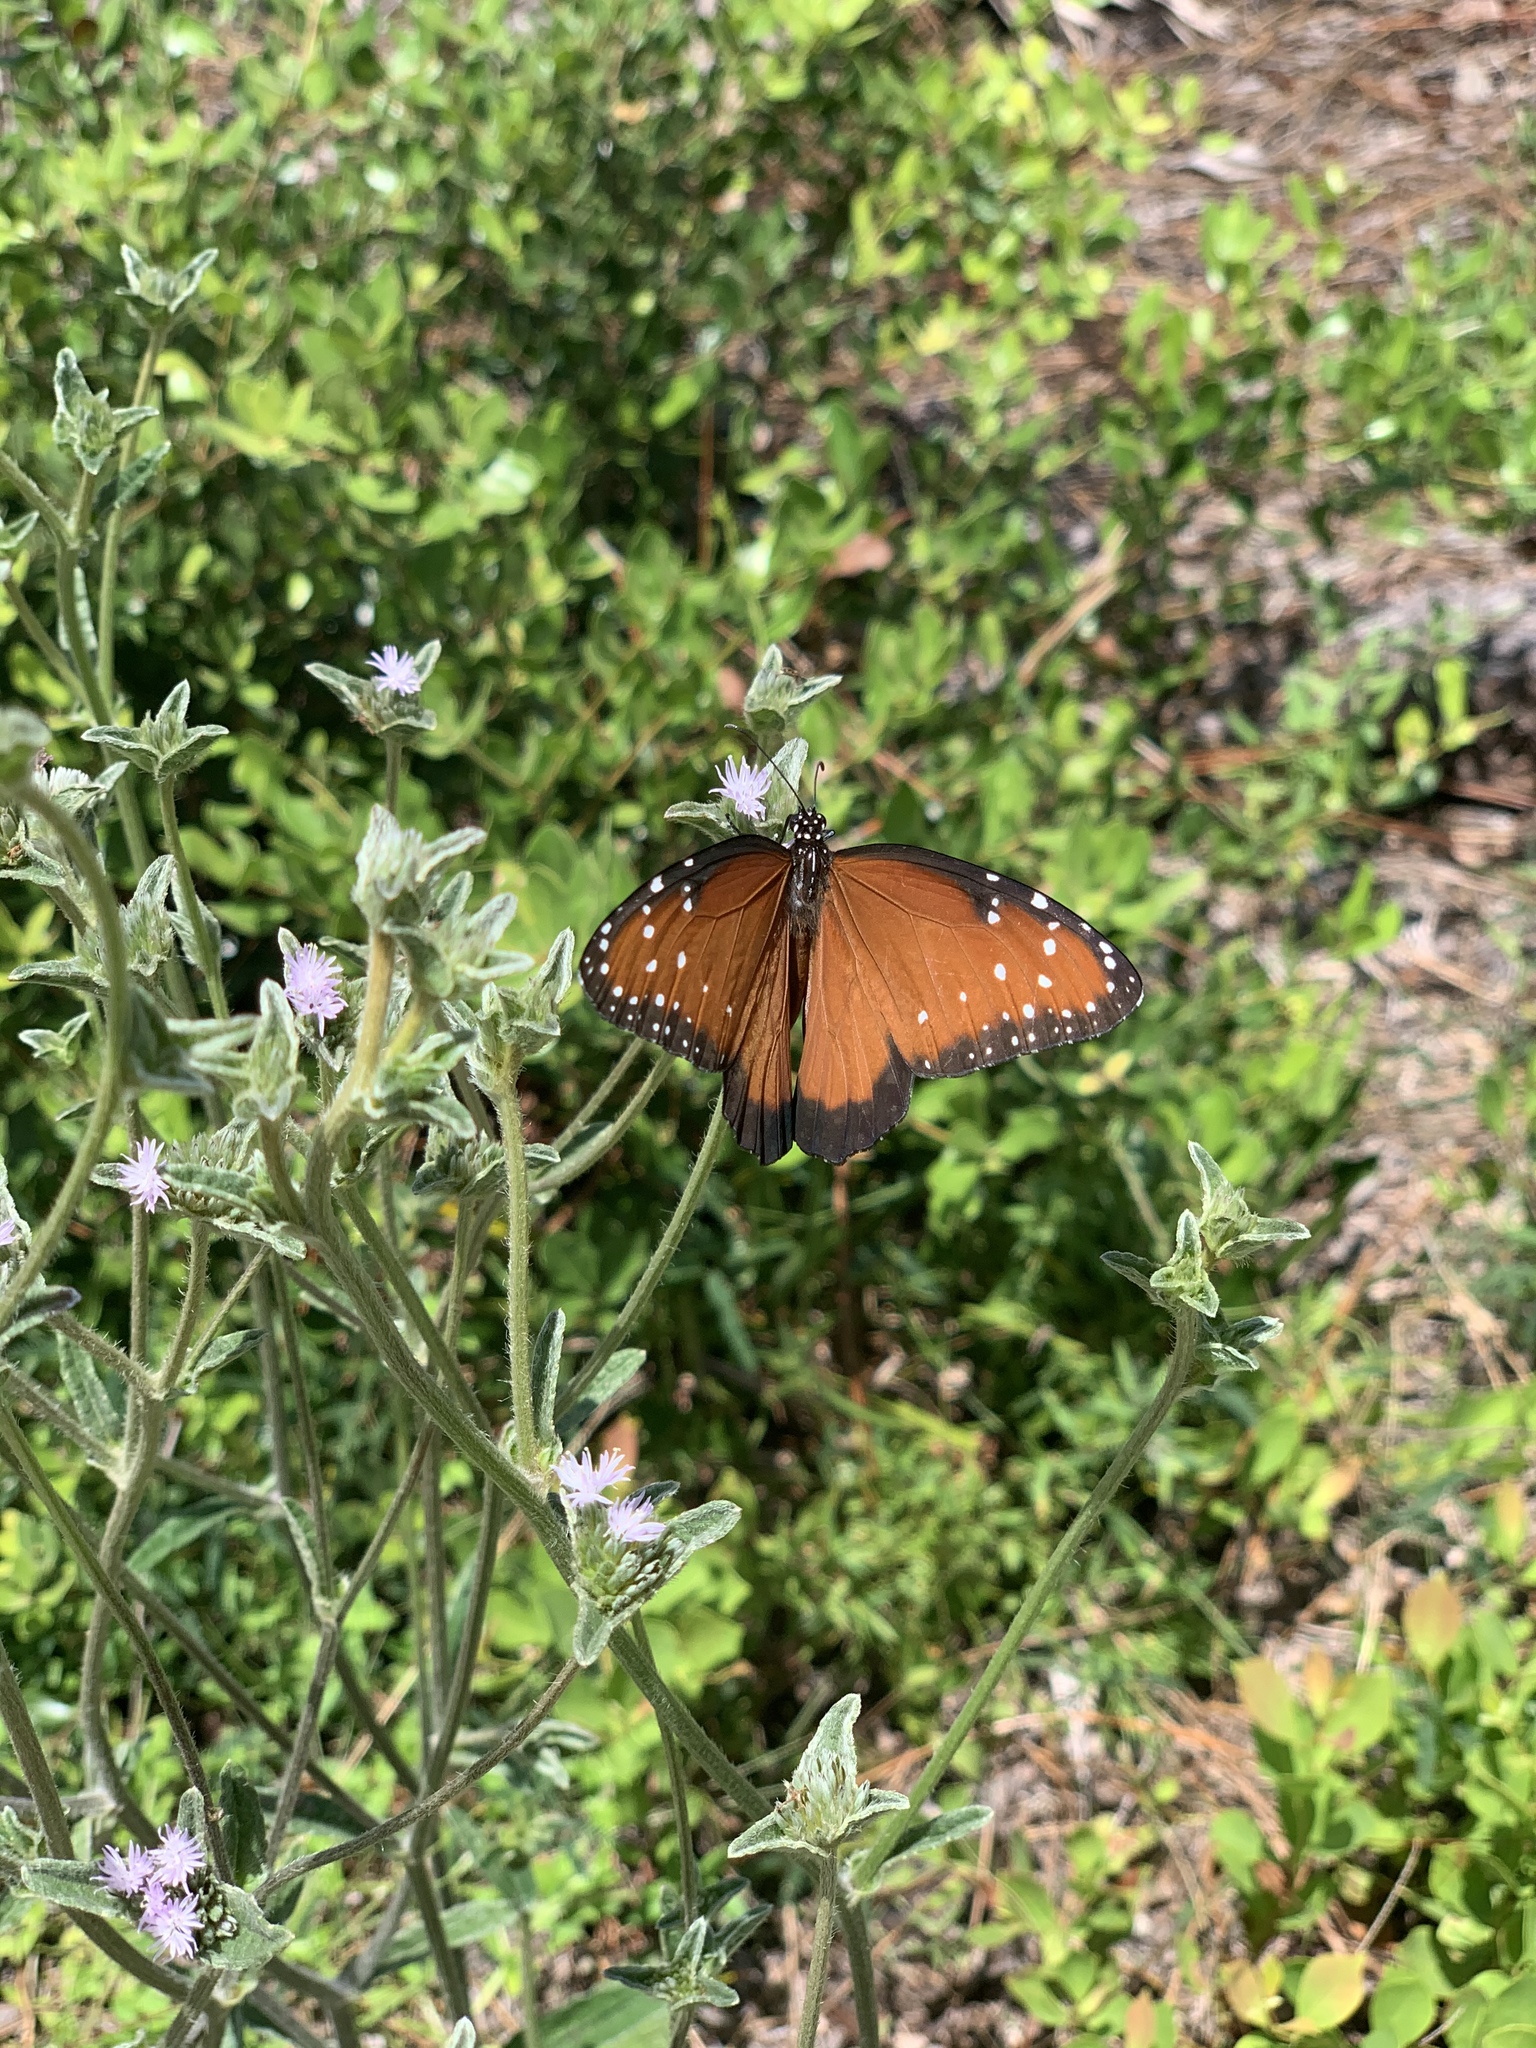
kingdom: Animalia
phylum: Arthropoda
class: Insecta
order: Lepidoptera
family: Nymphalidae
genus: Danaus
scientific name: Danaus gilippus
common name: Queen
